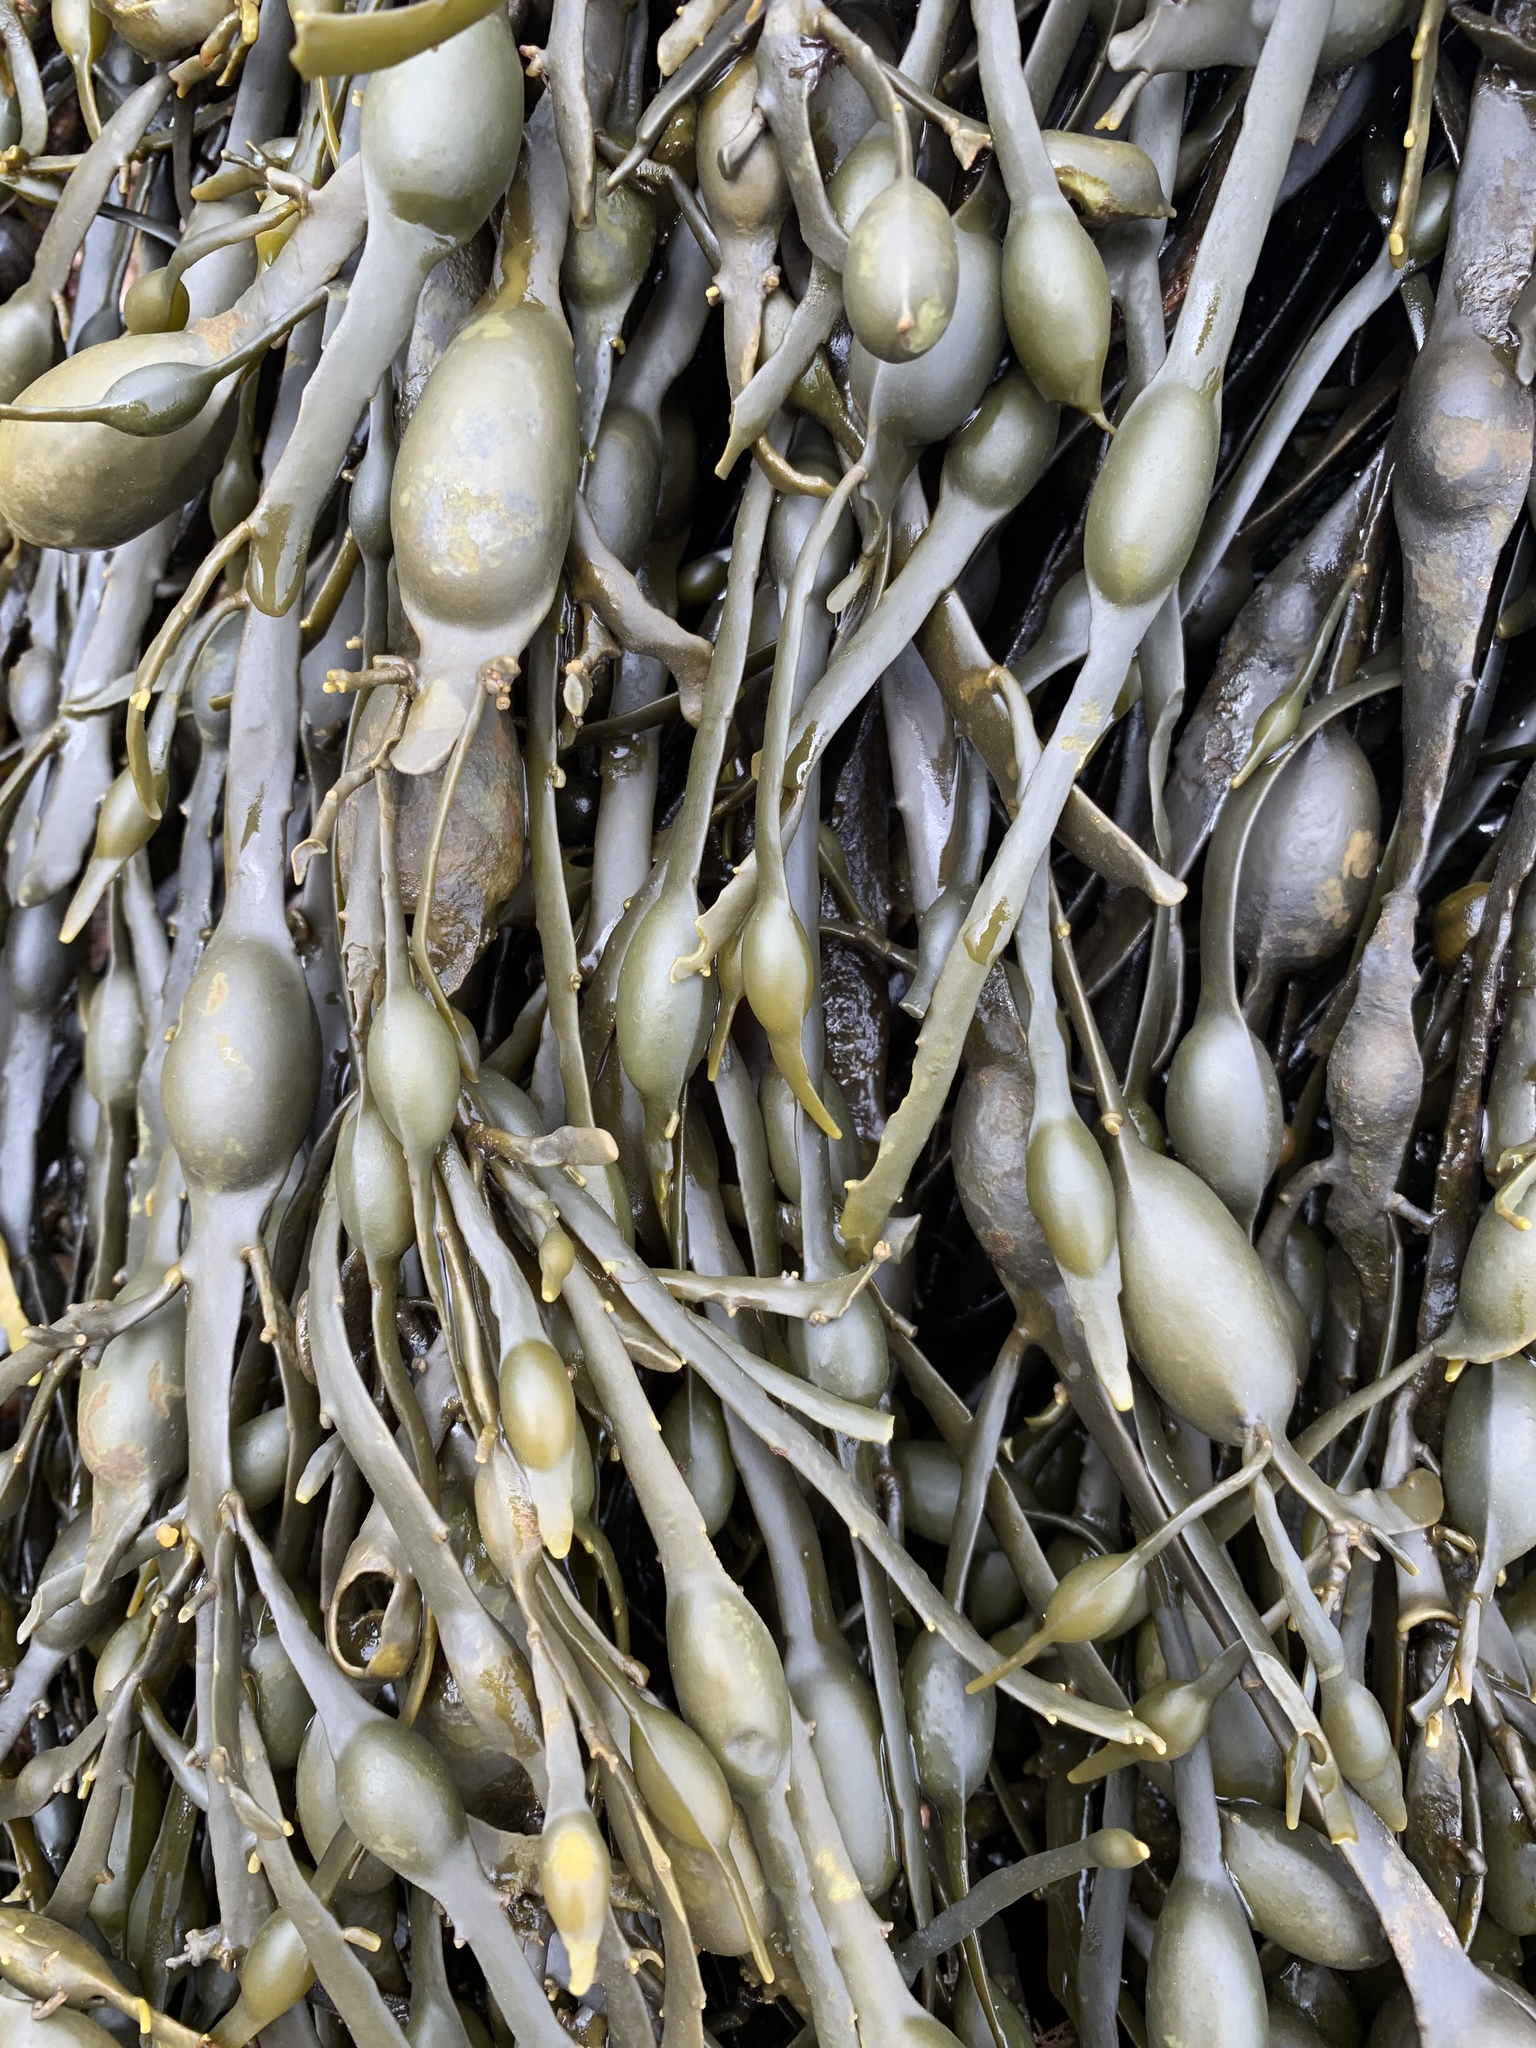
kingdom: Chromista
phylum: Ochrophyta
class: Phaeophyceae
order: Fucales
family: Fucaceae
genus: Ascophyllum
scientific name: Ascophyllum nodosum
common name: Knotted wrack
